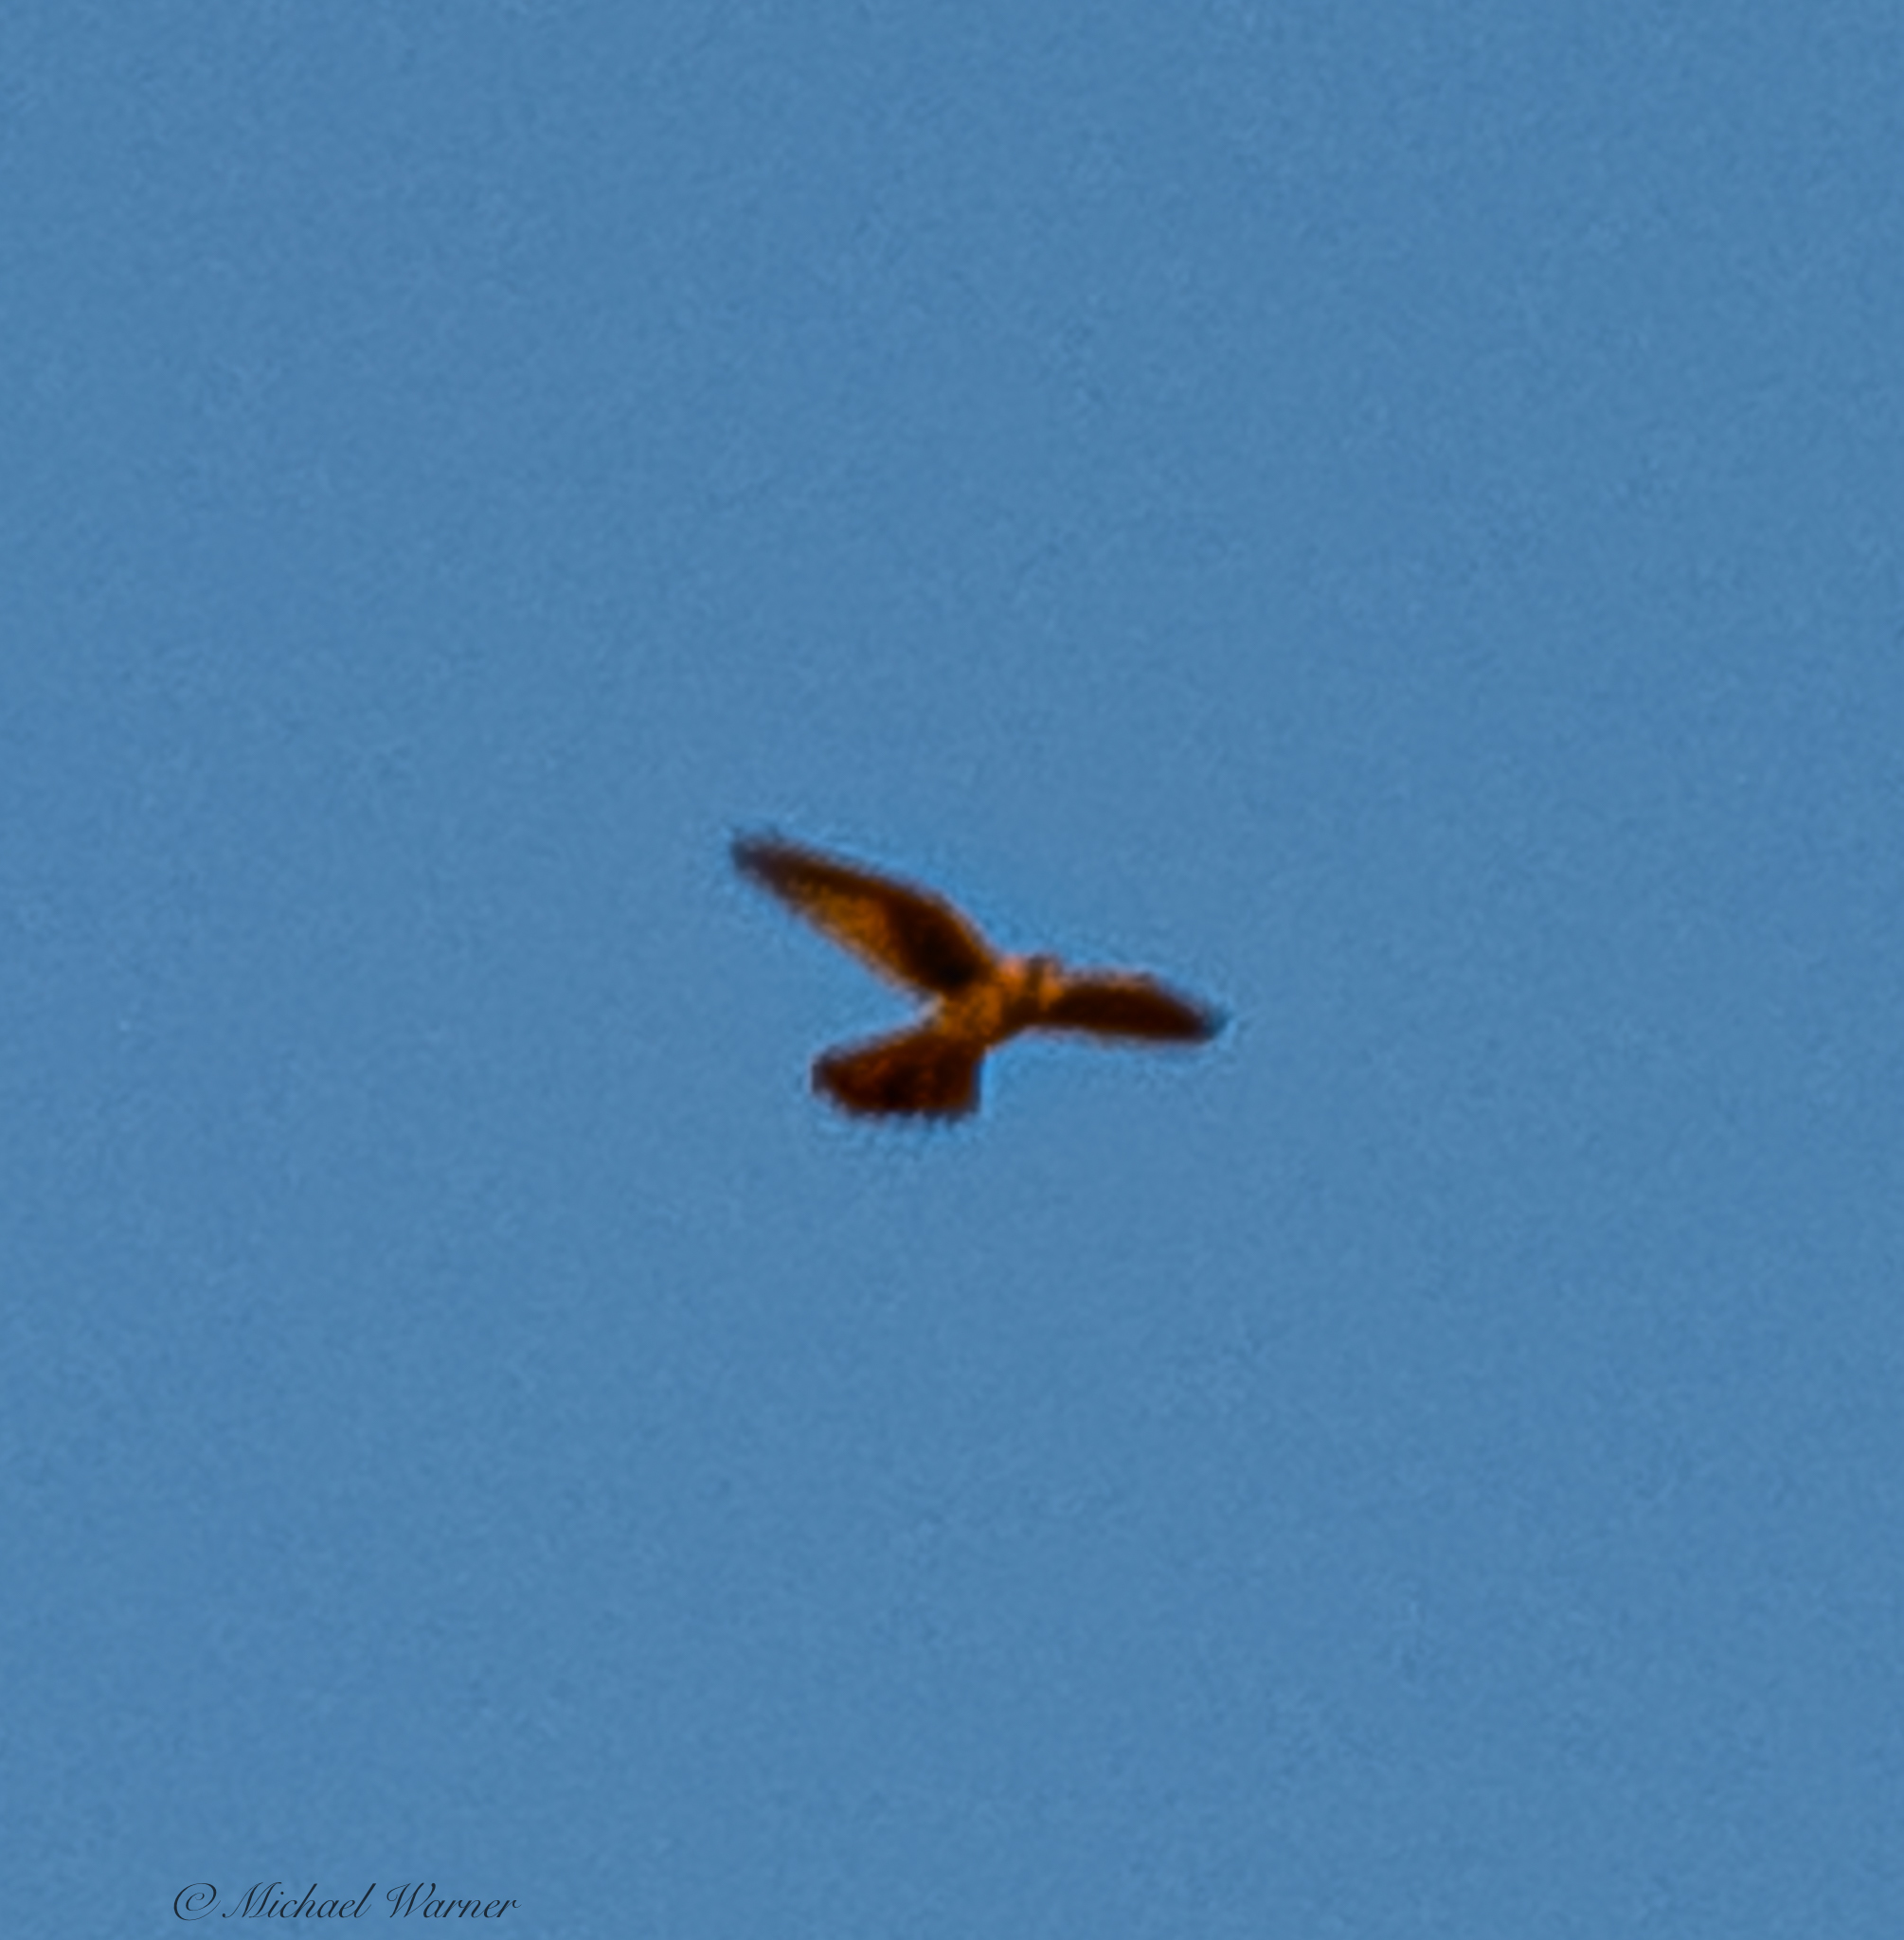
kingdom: Animalia
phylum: Chordata
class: Aves
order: Falconiformes
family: Falconidae
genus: Falco
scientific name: Falco sparverius
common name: American kestrel
